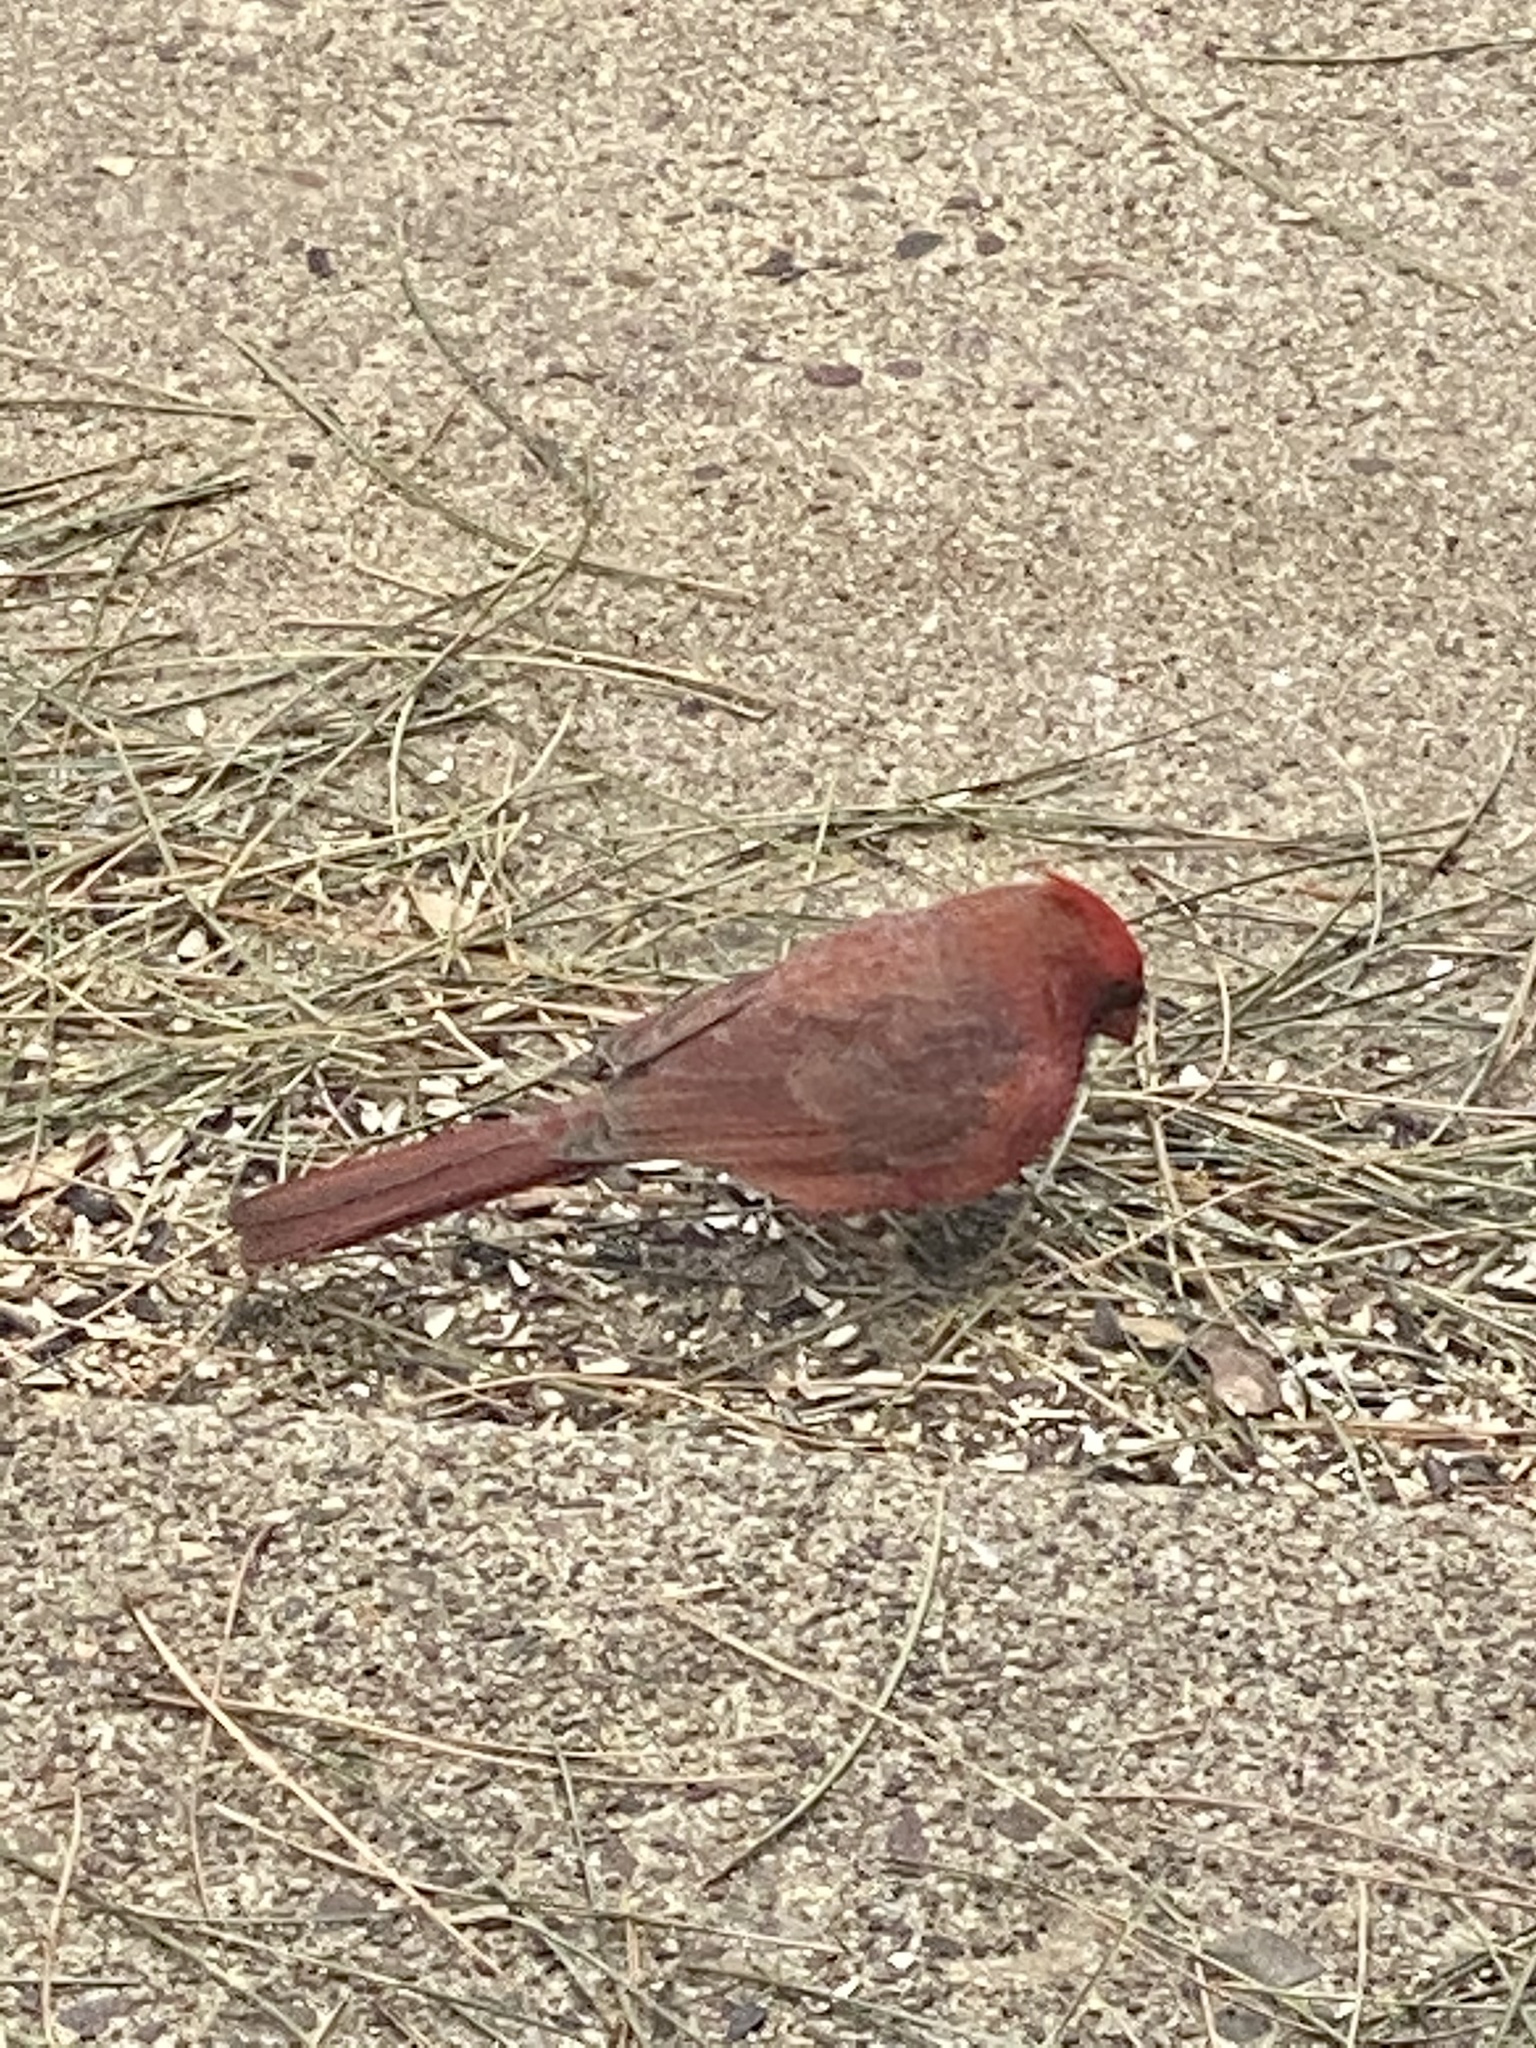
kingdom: Animalia
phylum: Chordata
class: Aves
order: Passeriformes
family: Cardinalidae
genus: Cardinalis
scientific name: Cardinalis cardinalis
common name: Northern cardinal
